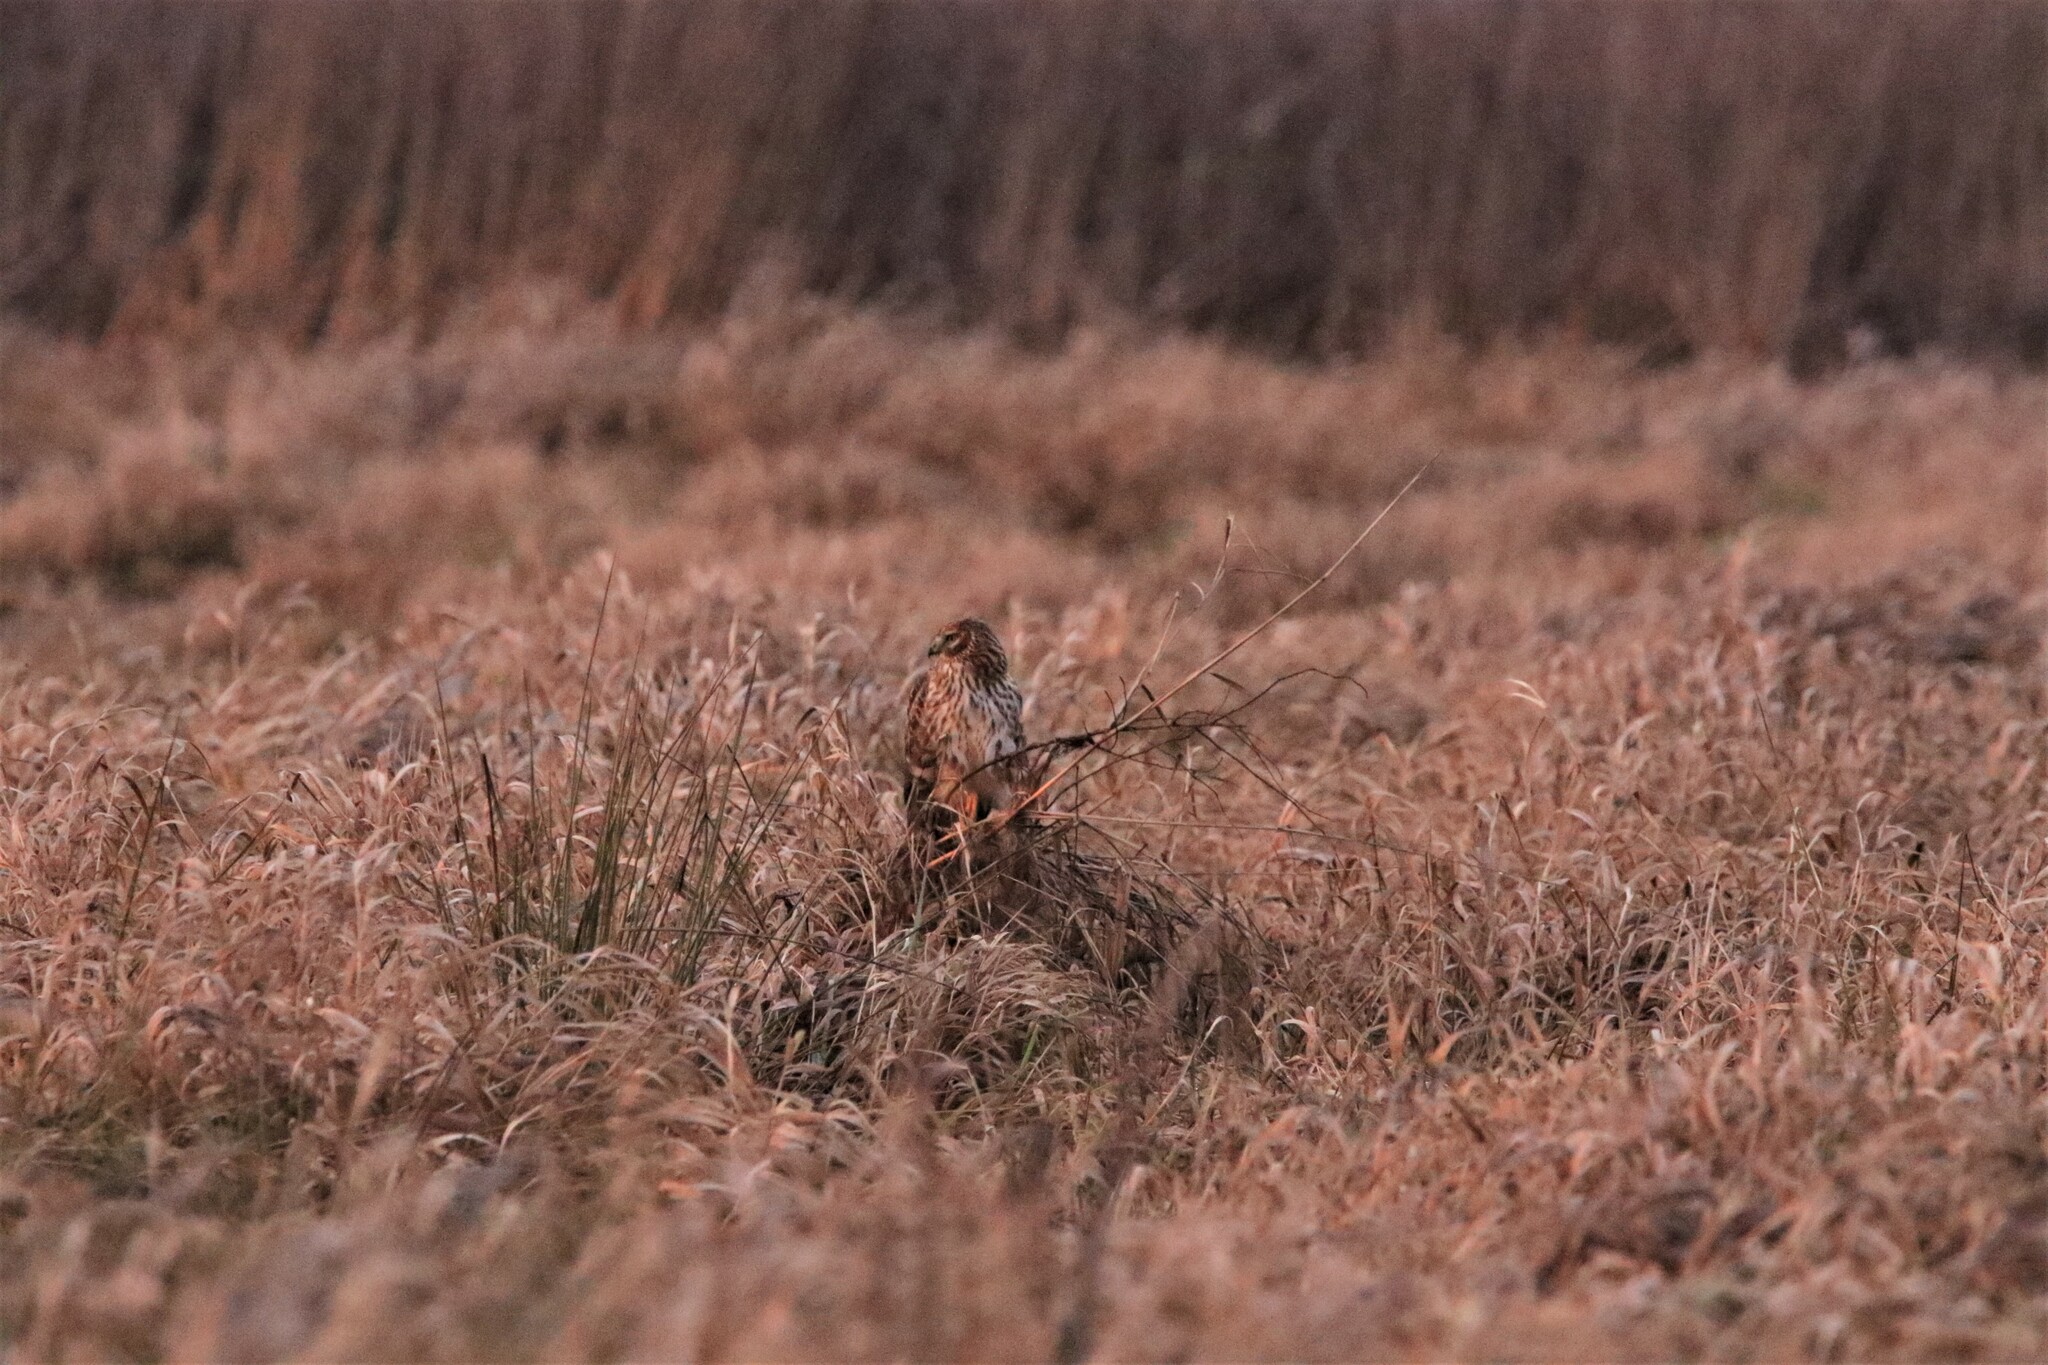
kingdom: Animalia
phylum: Chordata
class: Aves
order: Accipitriformes
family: Accipitridae
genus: Circus
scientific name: Circus cyaneus
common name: Hen harrier
